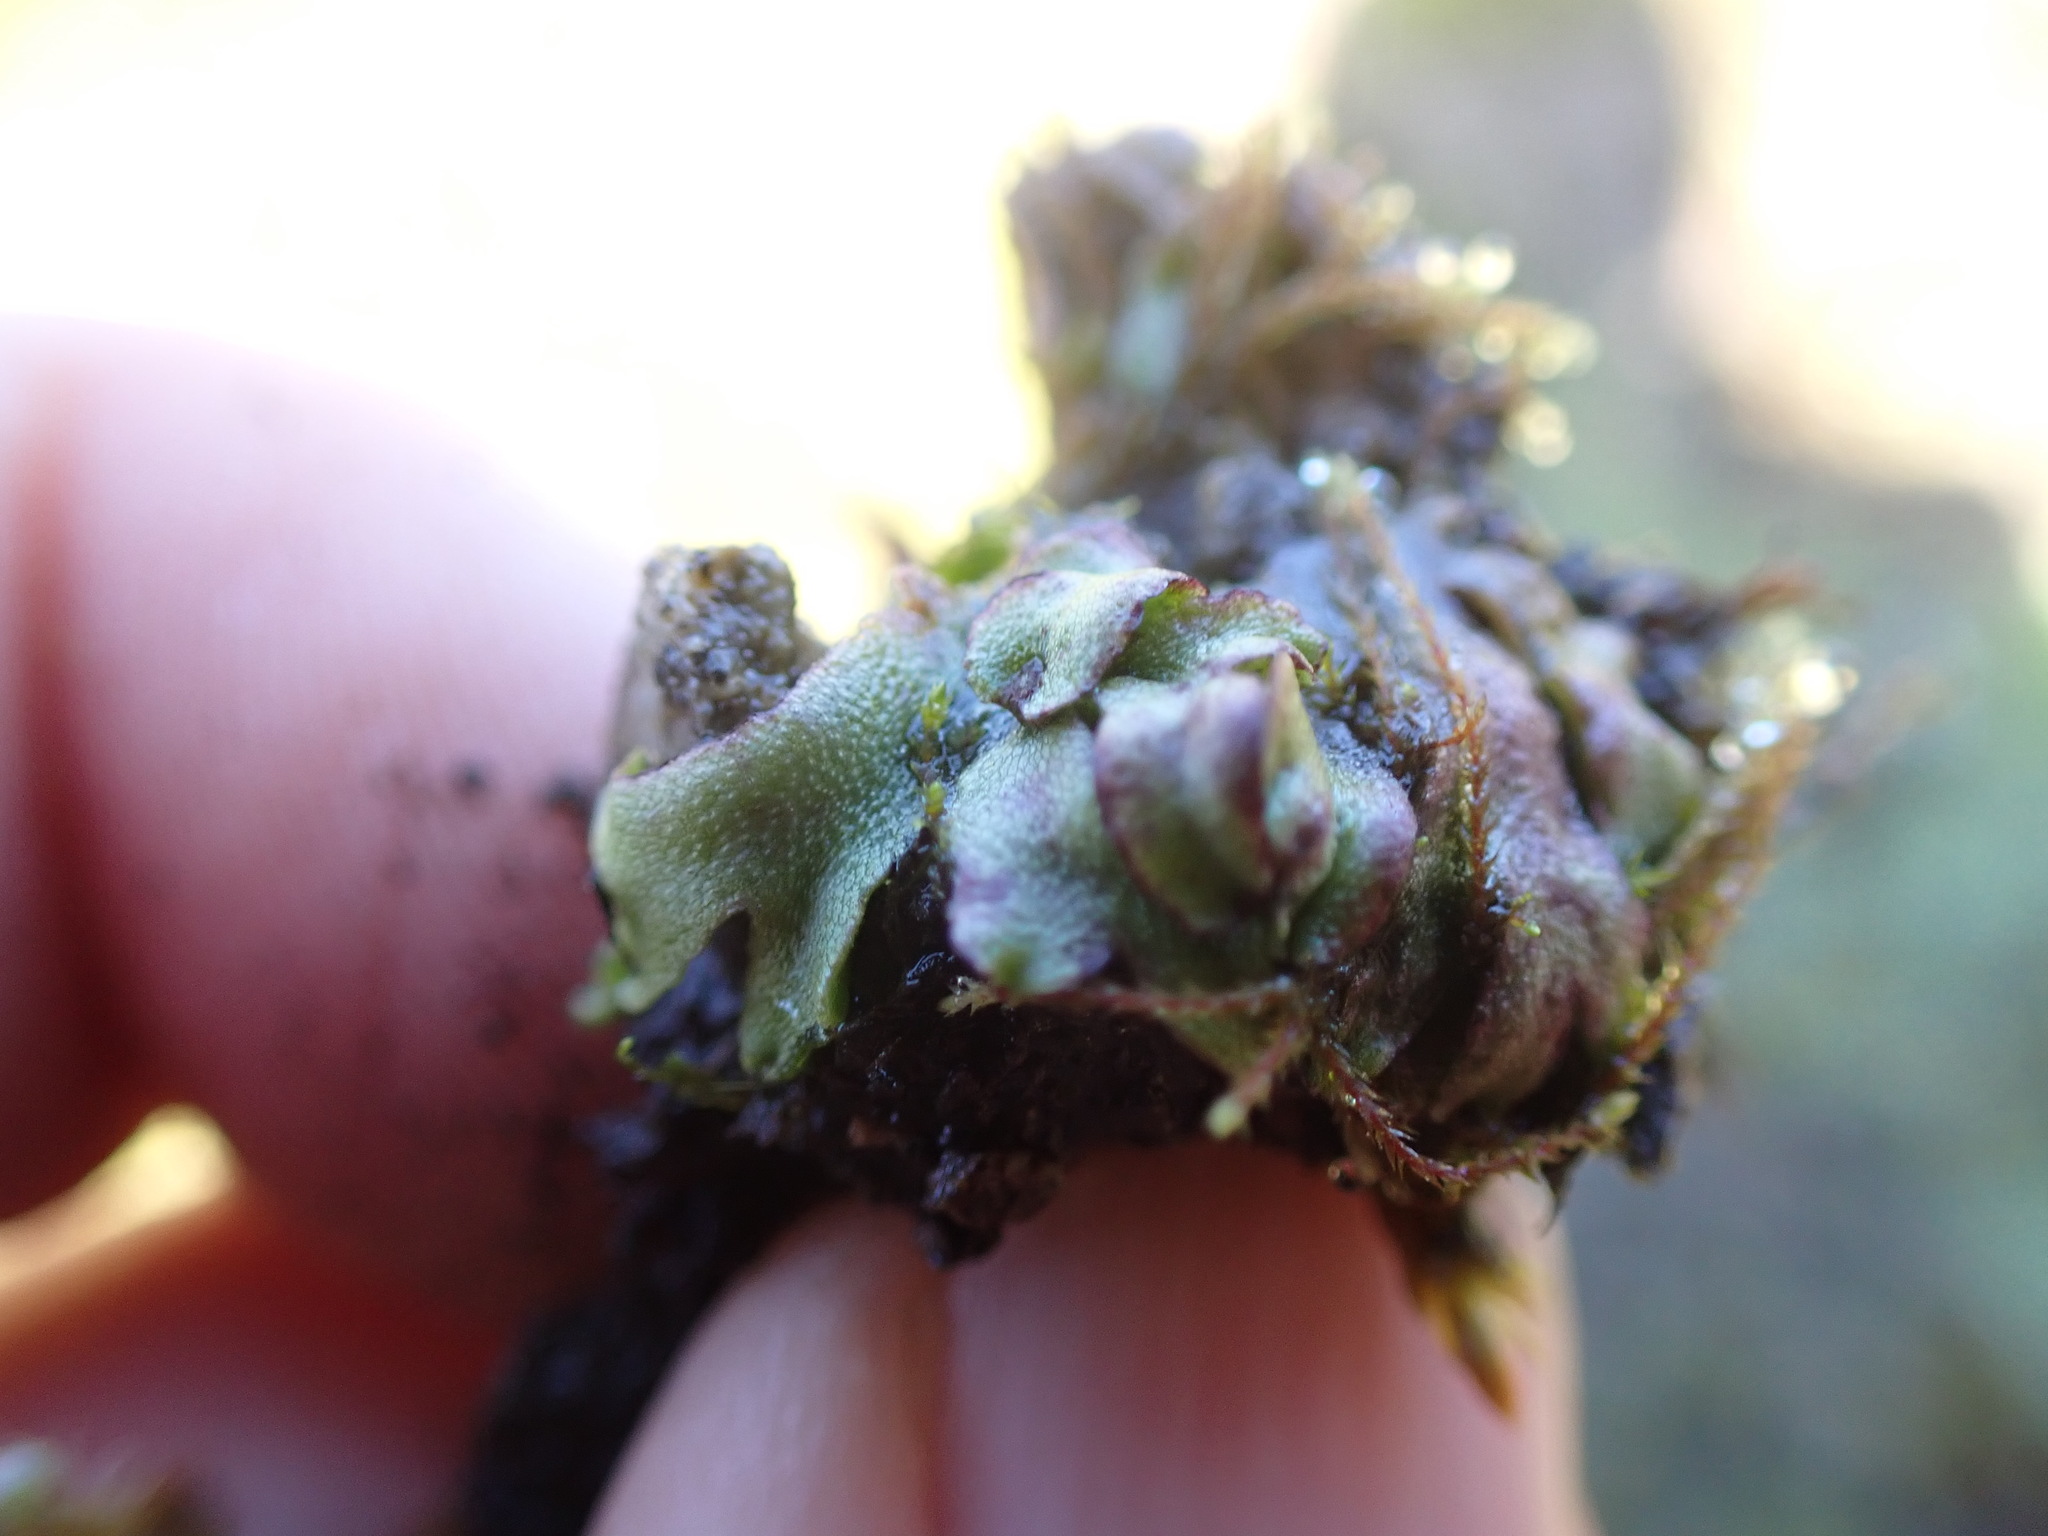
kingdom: Plantae
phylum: Marchantiophyta
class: Marchantiopsida
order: Marchantiales
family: Aytoniaceae
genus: Mannia
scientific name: Mannia gracilis
